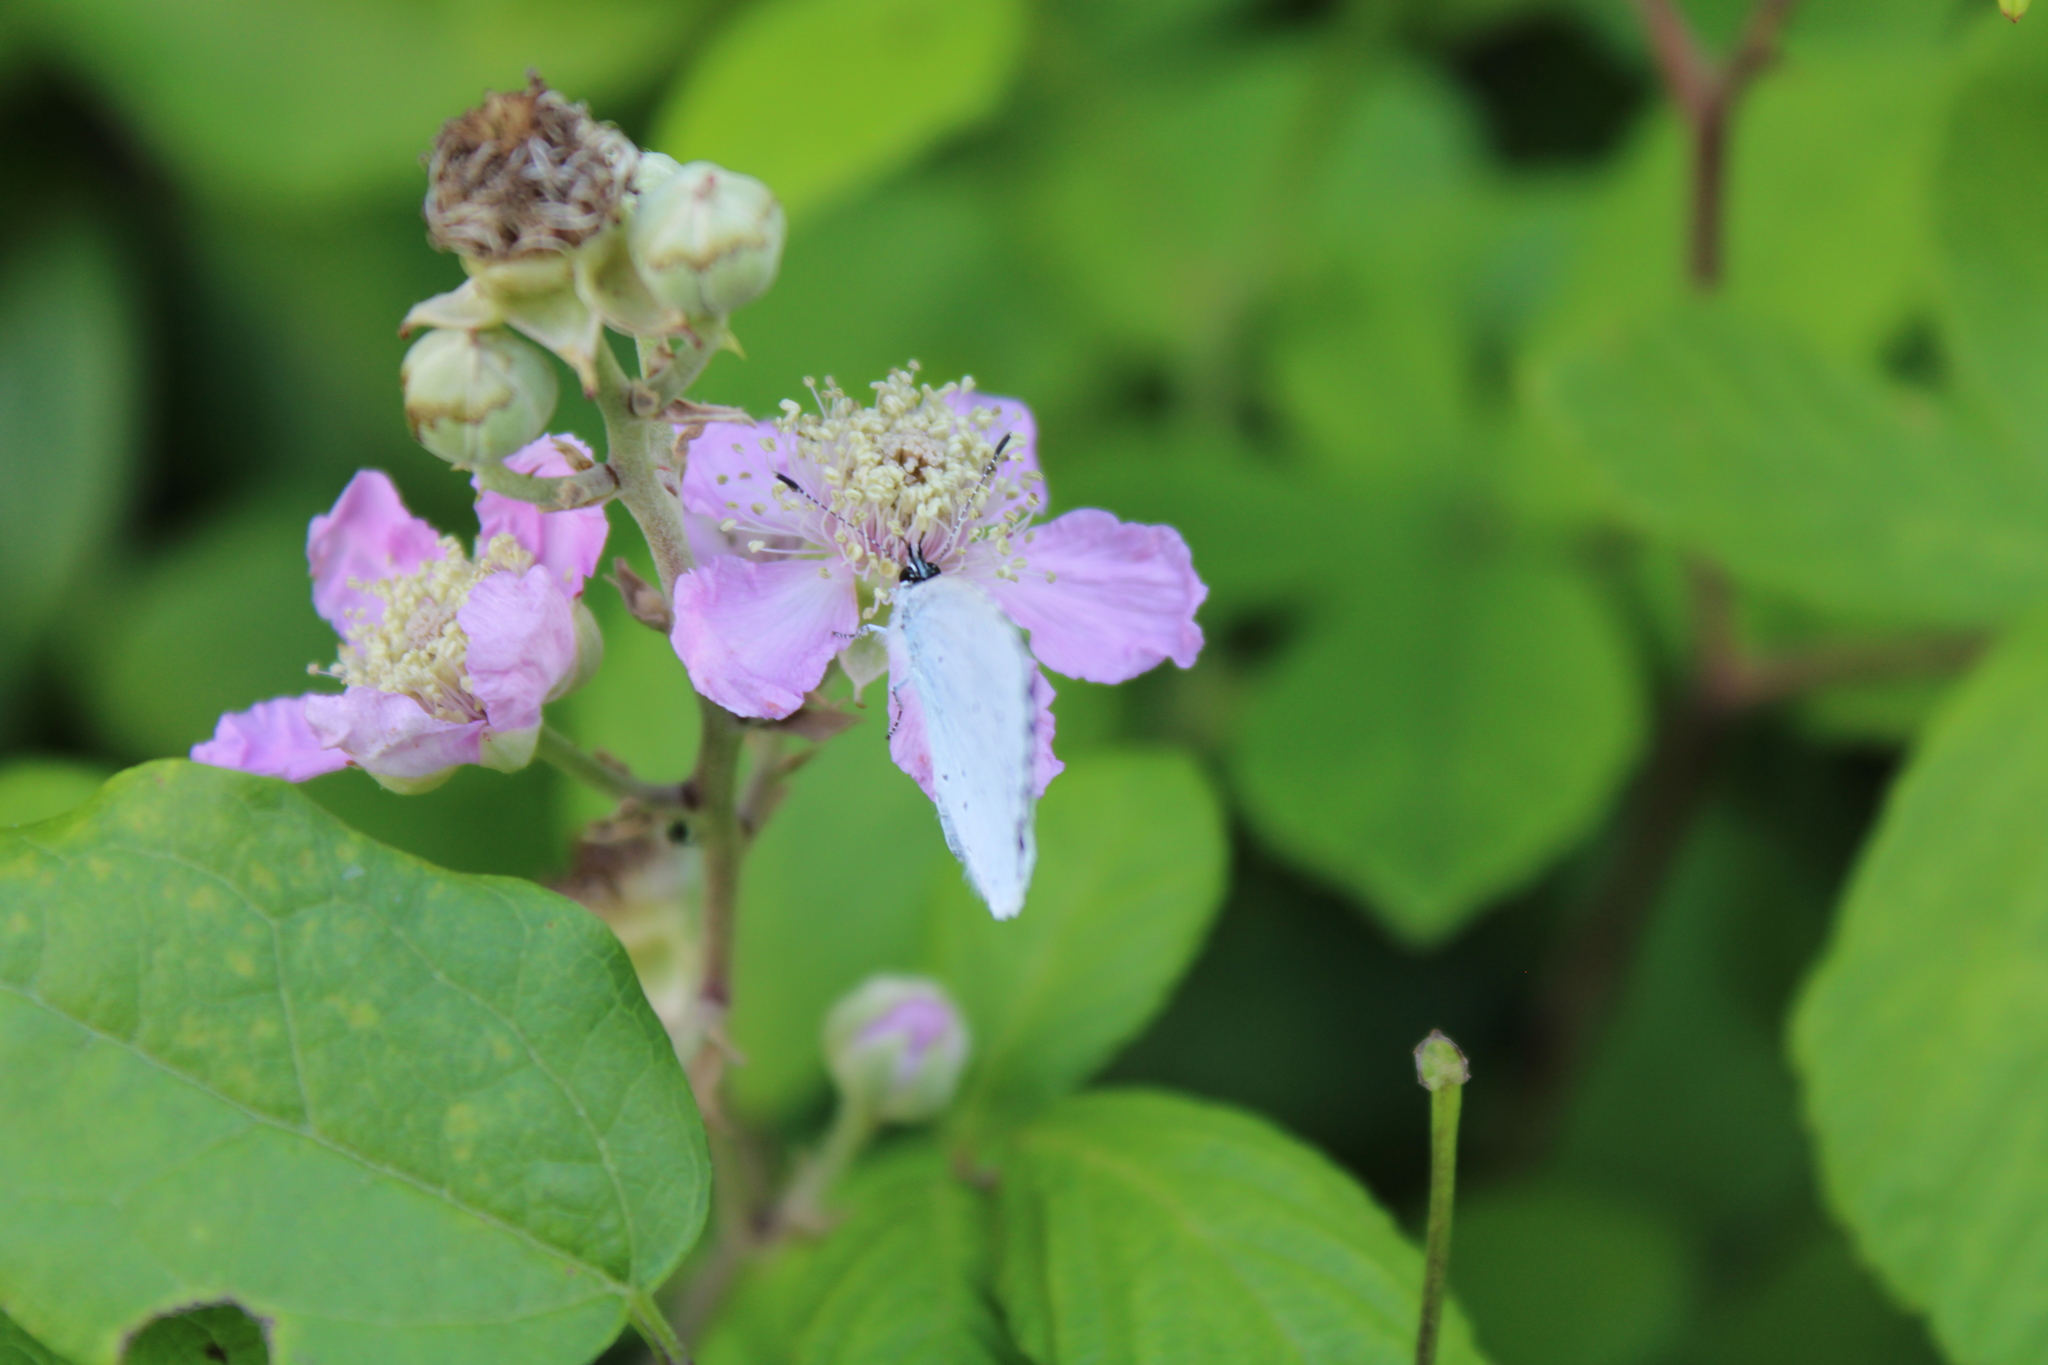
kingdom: Animalia
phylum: Arthropoda
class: Insecta
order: Lepidoptera
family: Lycaenidae
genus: Celastrina
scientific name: Celastrina argiolus
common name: Holly blue
